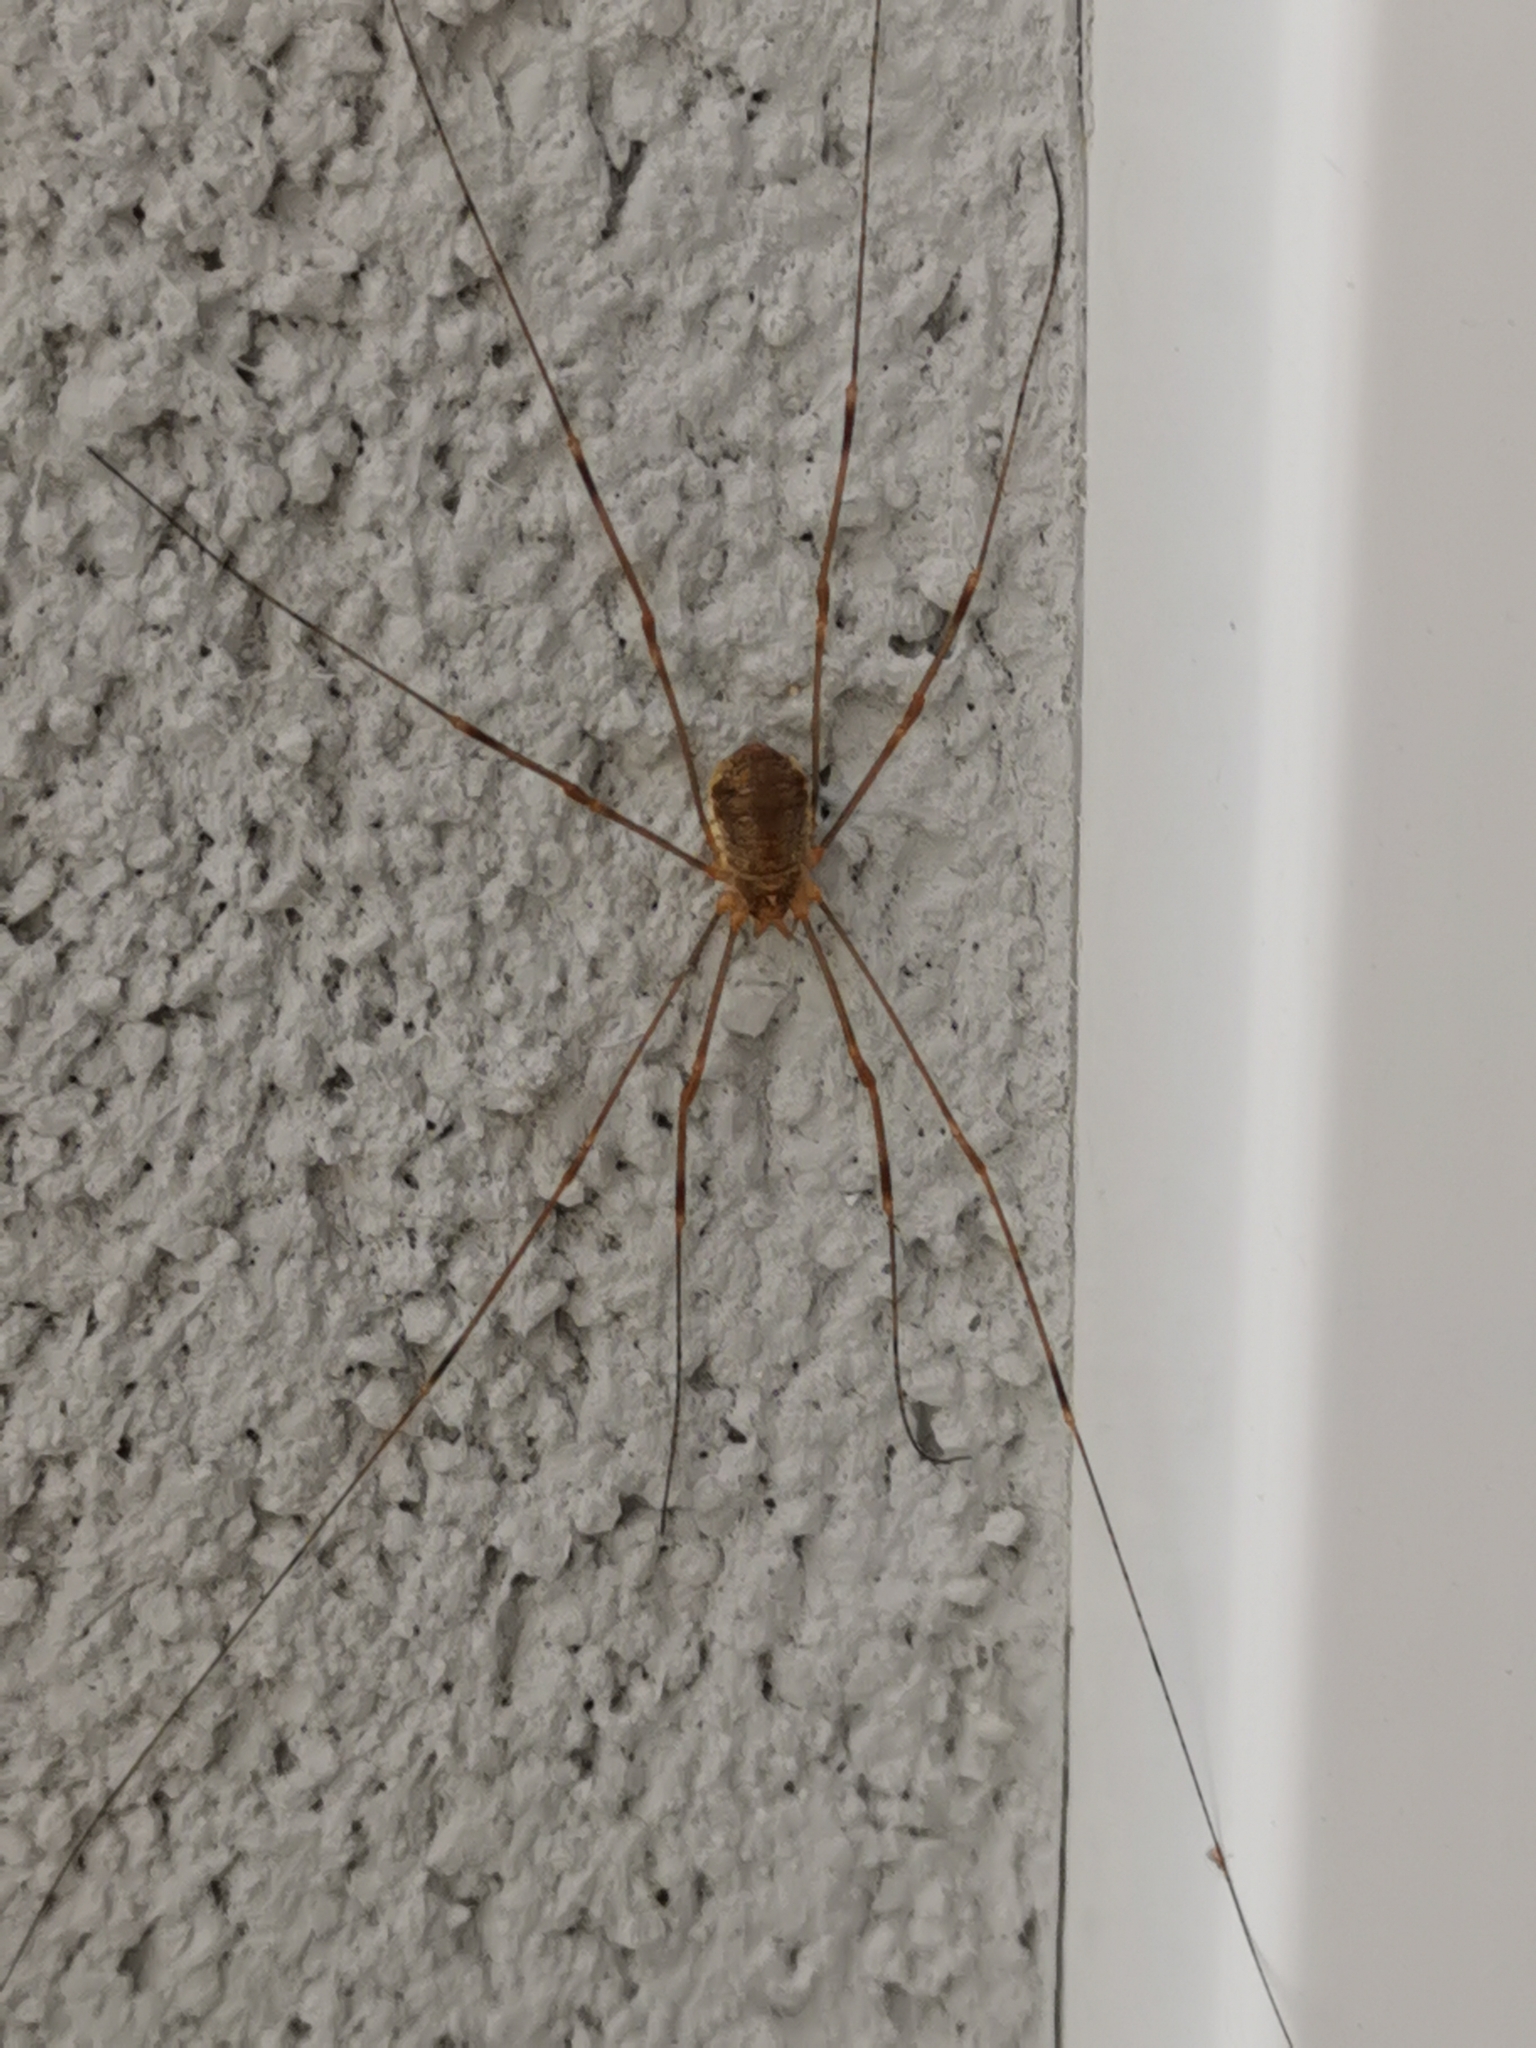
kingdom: Animalia
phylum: Arthropoda
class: Arachnida
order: Opiliones
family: Phalangiidae
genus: Opilio
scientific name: Opilio canestrinii
